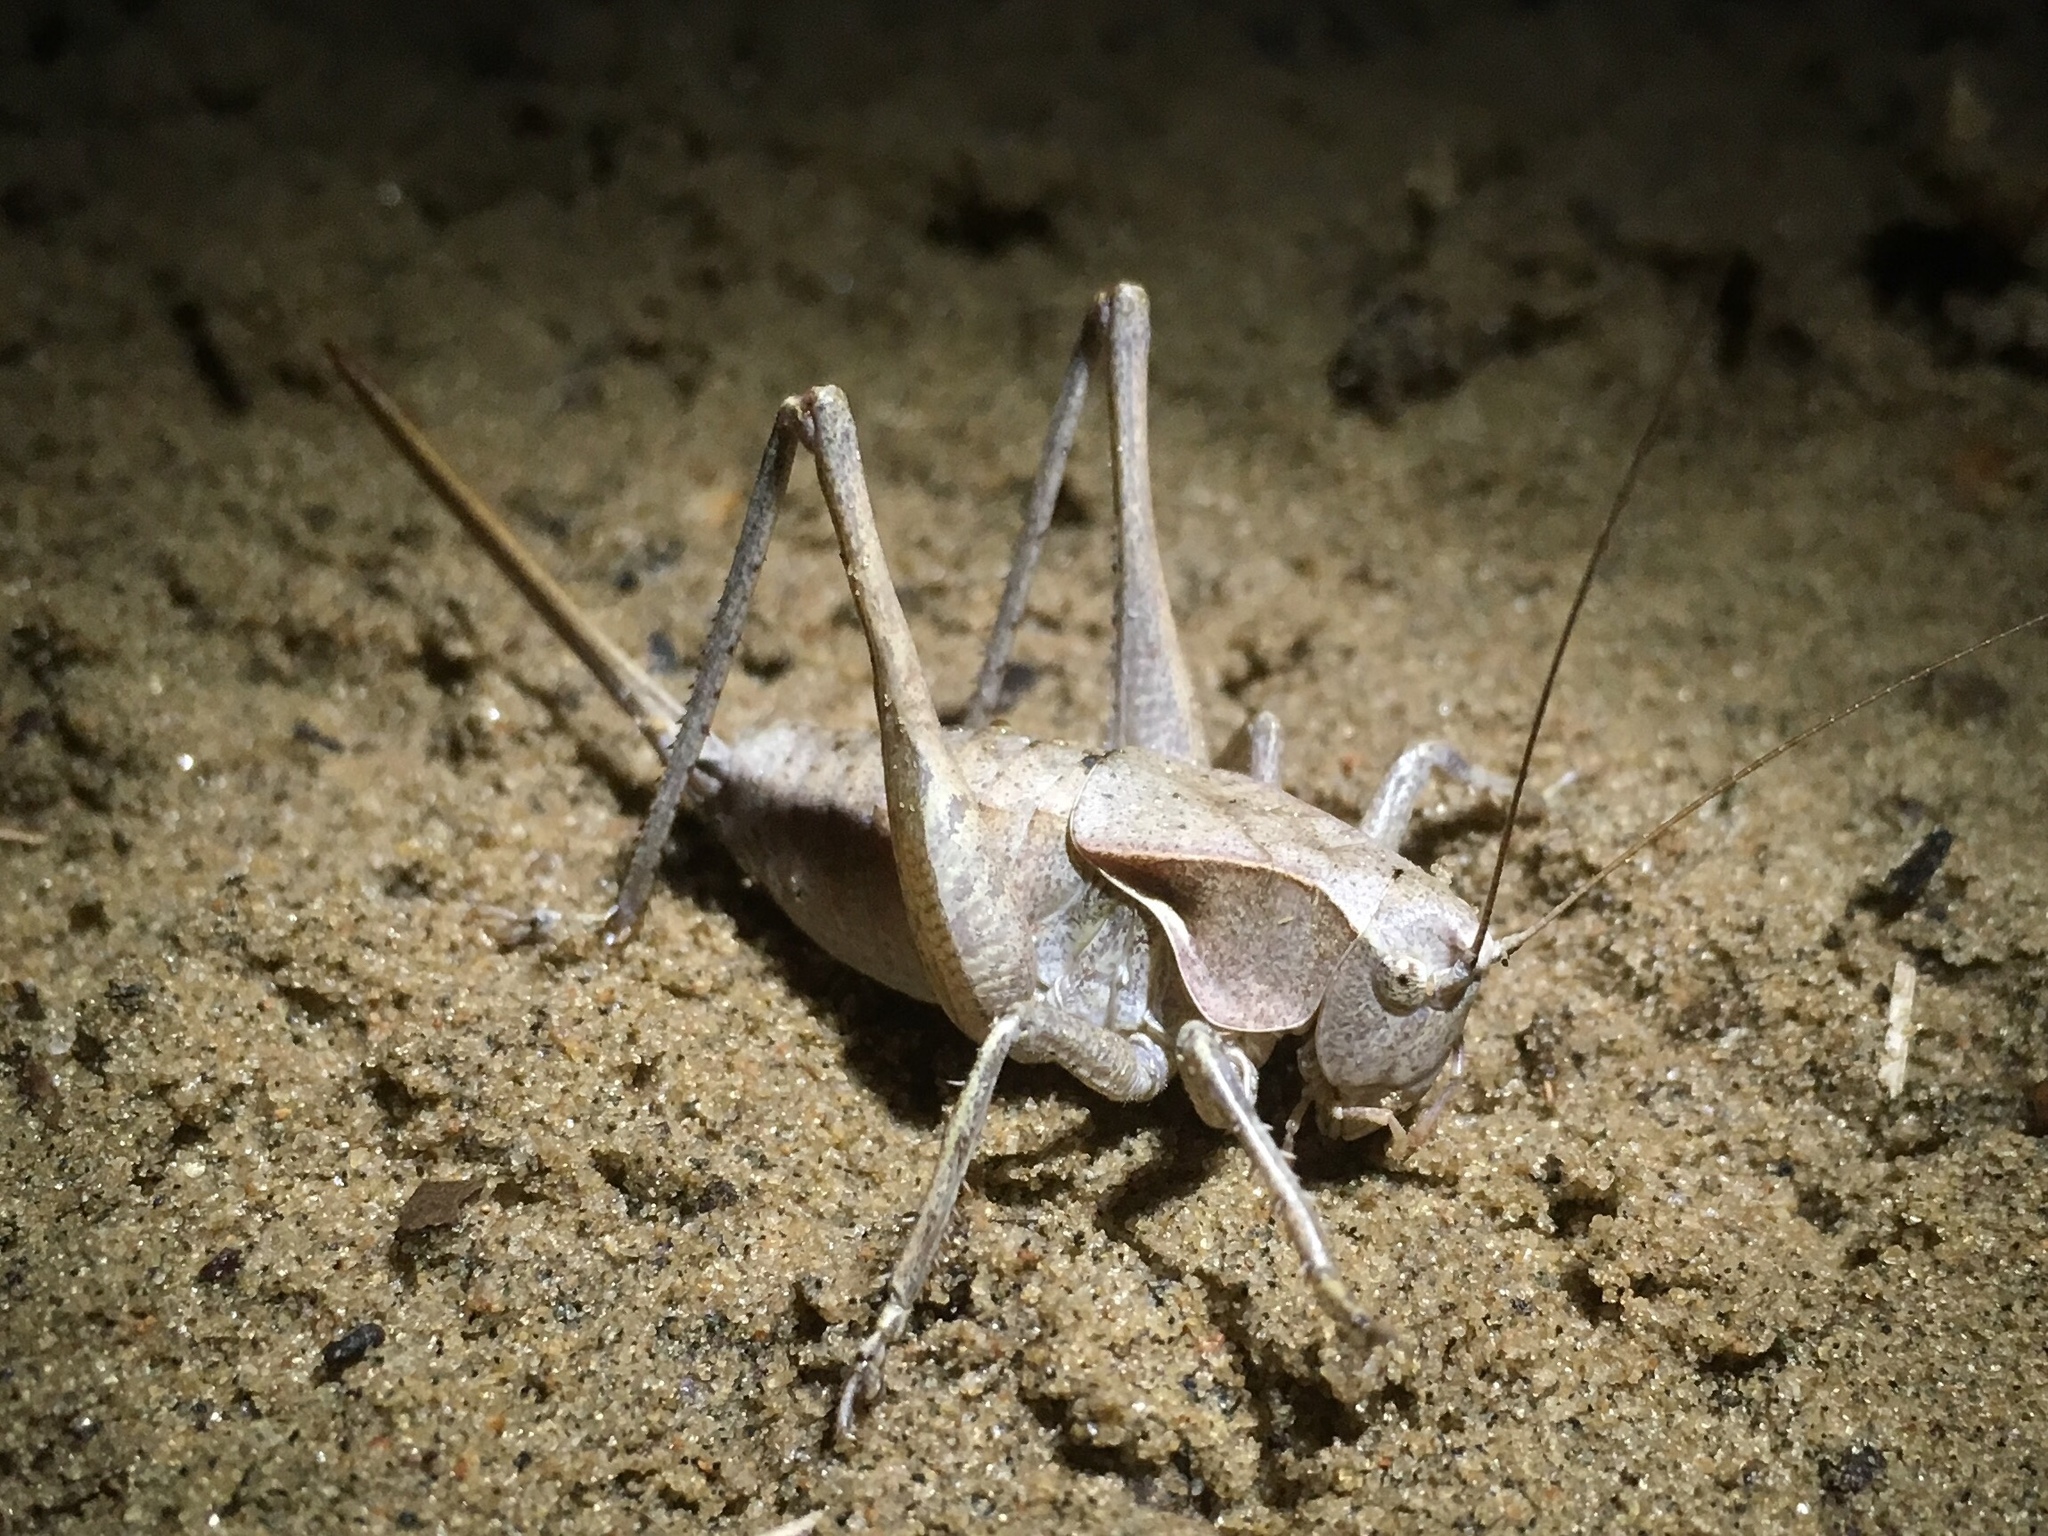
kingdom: Animalia
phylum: Arthropoda
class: Insecta
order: Orthoptera
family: Tettigoniidae
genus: Atlanticus
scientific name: Atlanticus davisi
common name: Davis's shield-bearer
